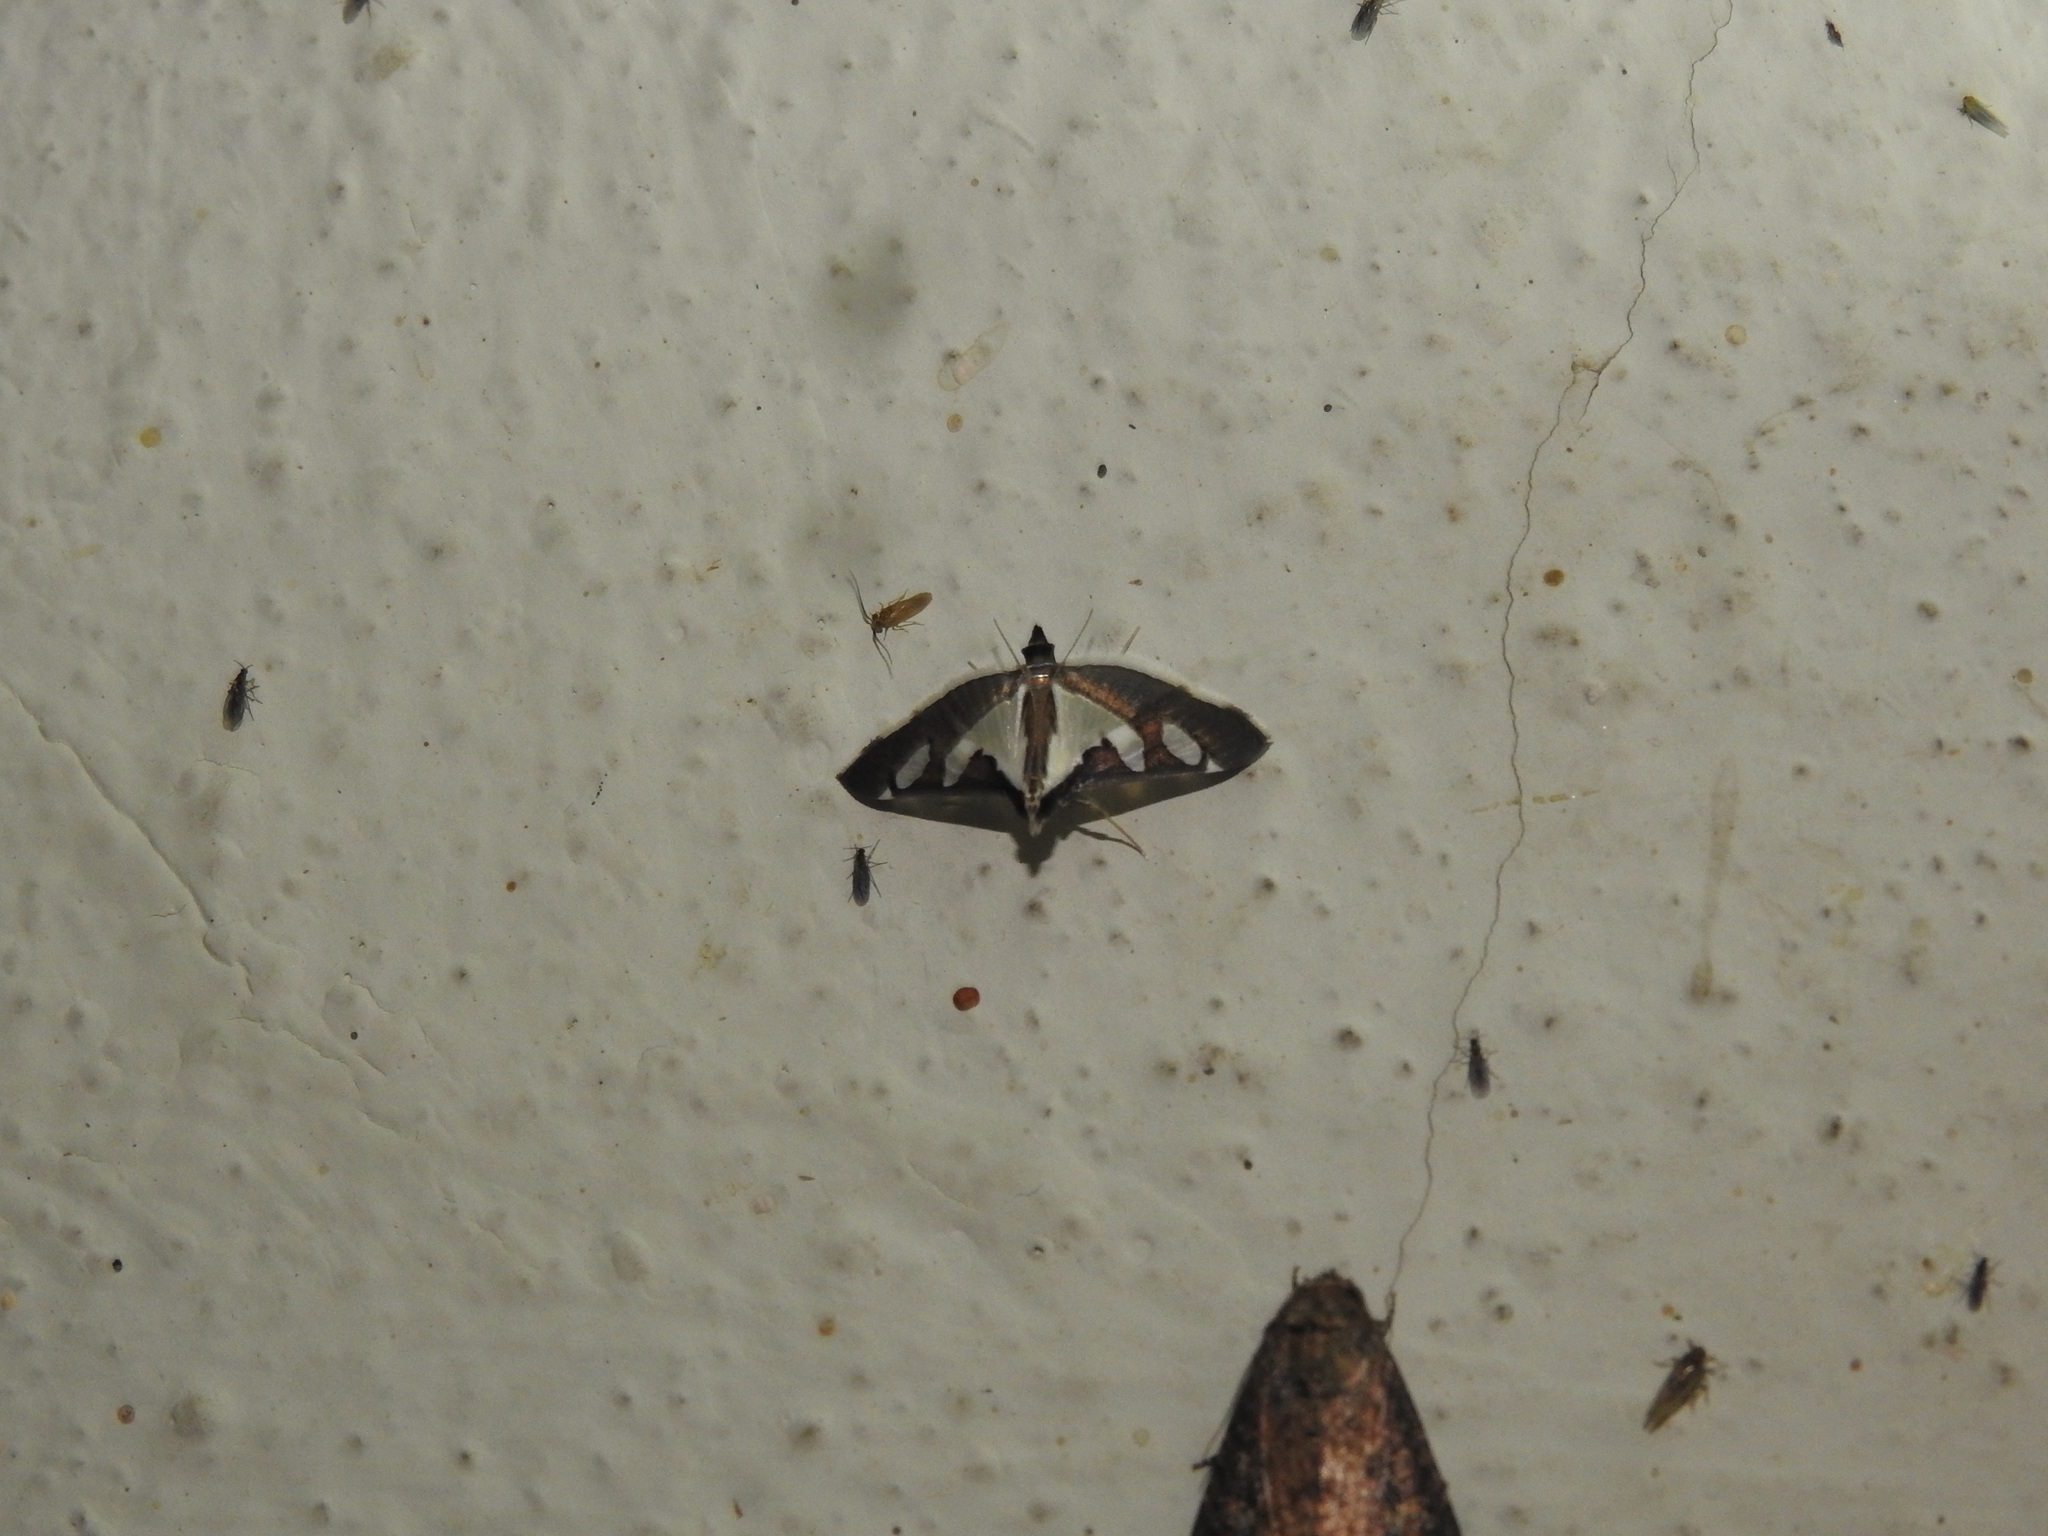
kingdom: Animalia
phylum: Arthropoda
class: Insecta
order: Lepidoptera
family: Crambidae
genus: Glyphodes
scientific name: Glyphodes bicolor
